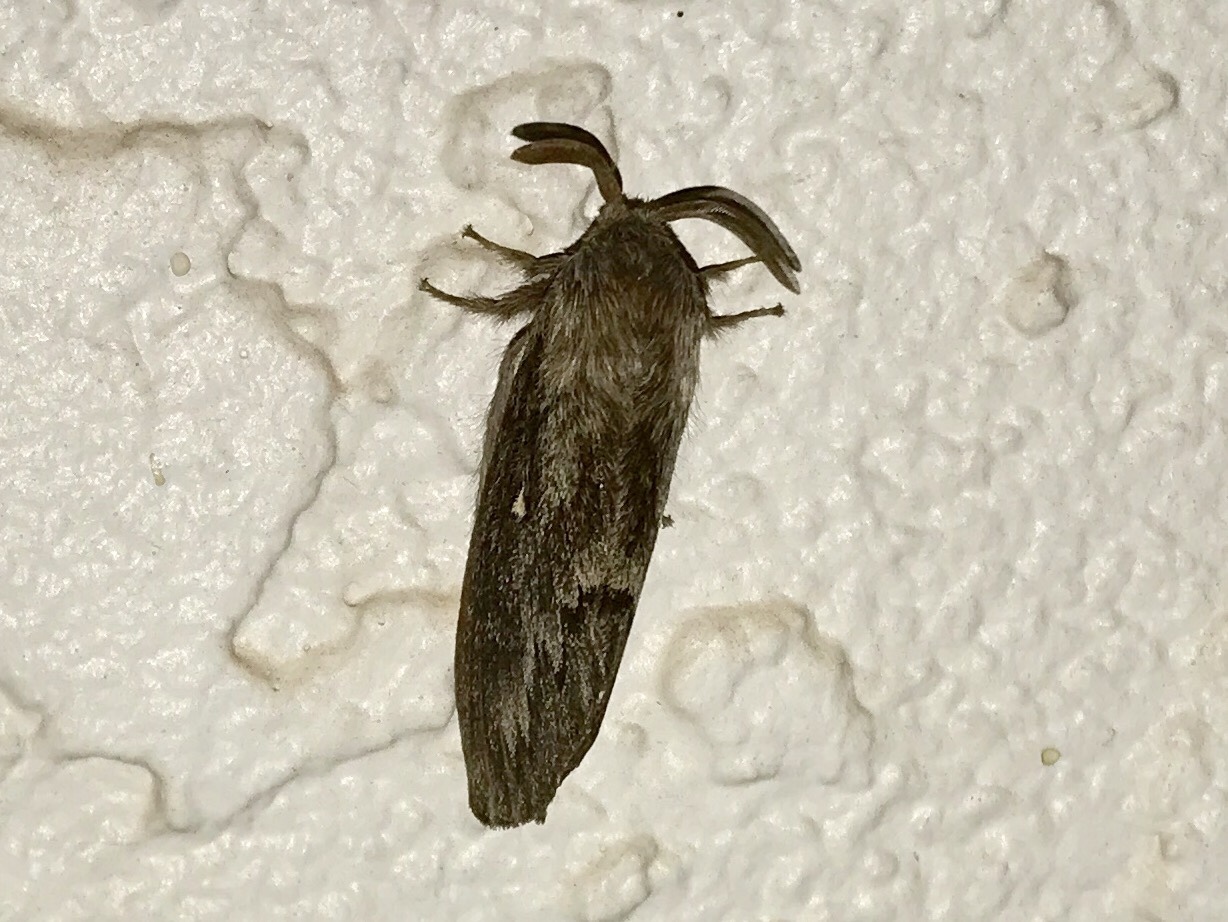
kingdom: Animalia
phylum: Arthropoda
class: Insecta
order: Lepidoptera
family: Lasiocampidae
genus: Gloveria
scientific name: Gloveria arizonensis
